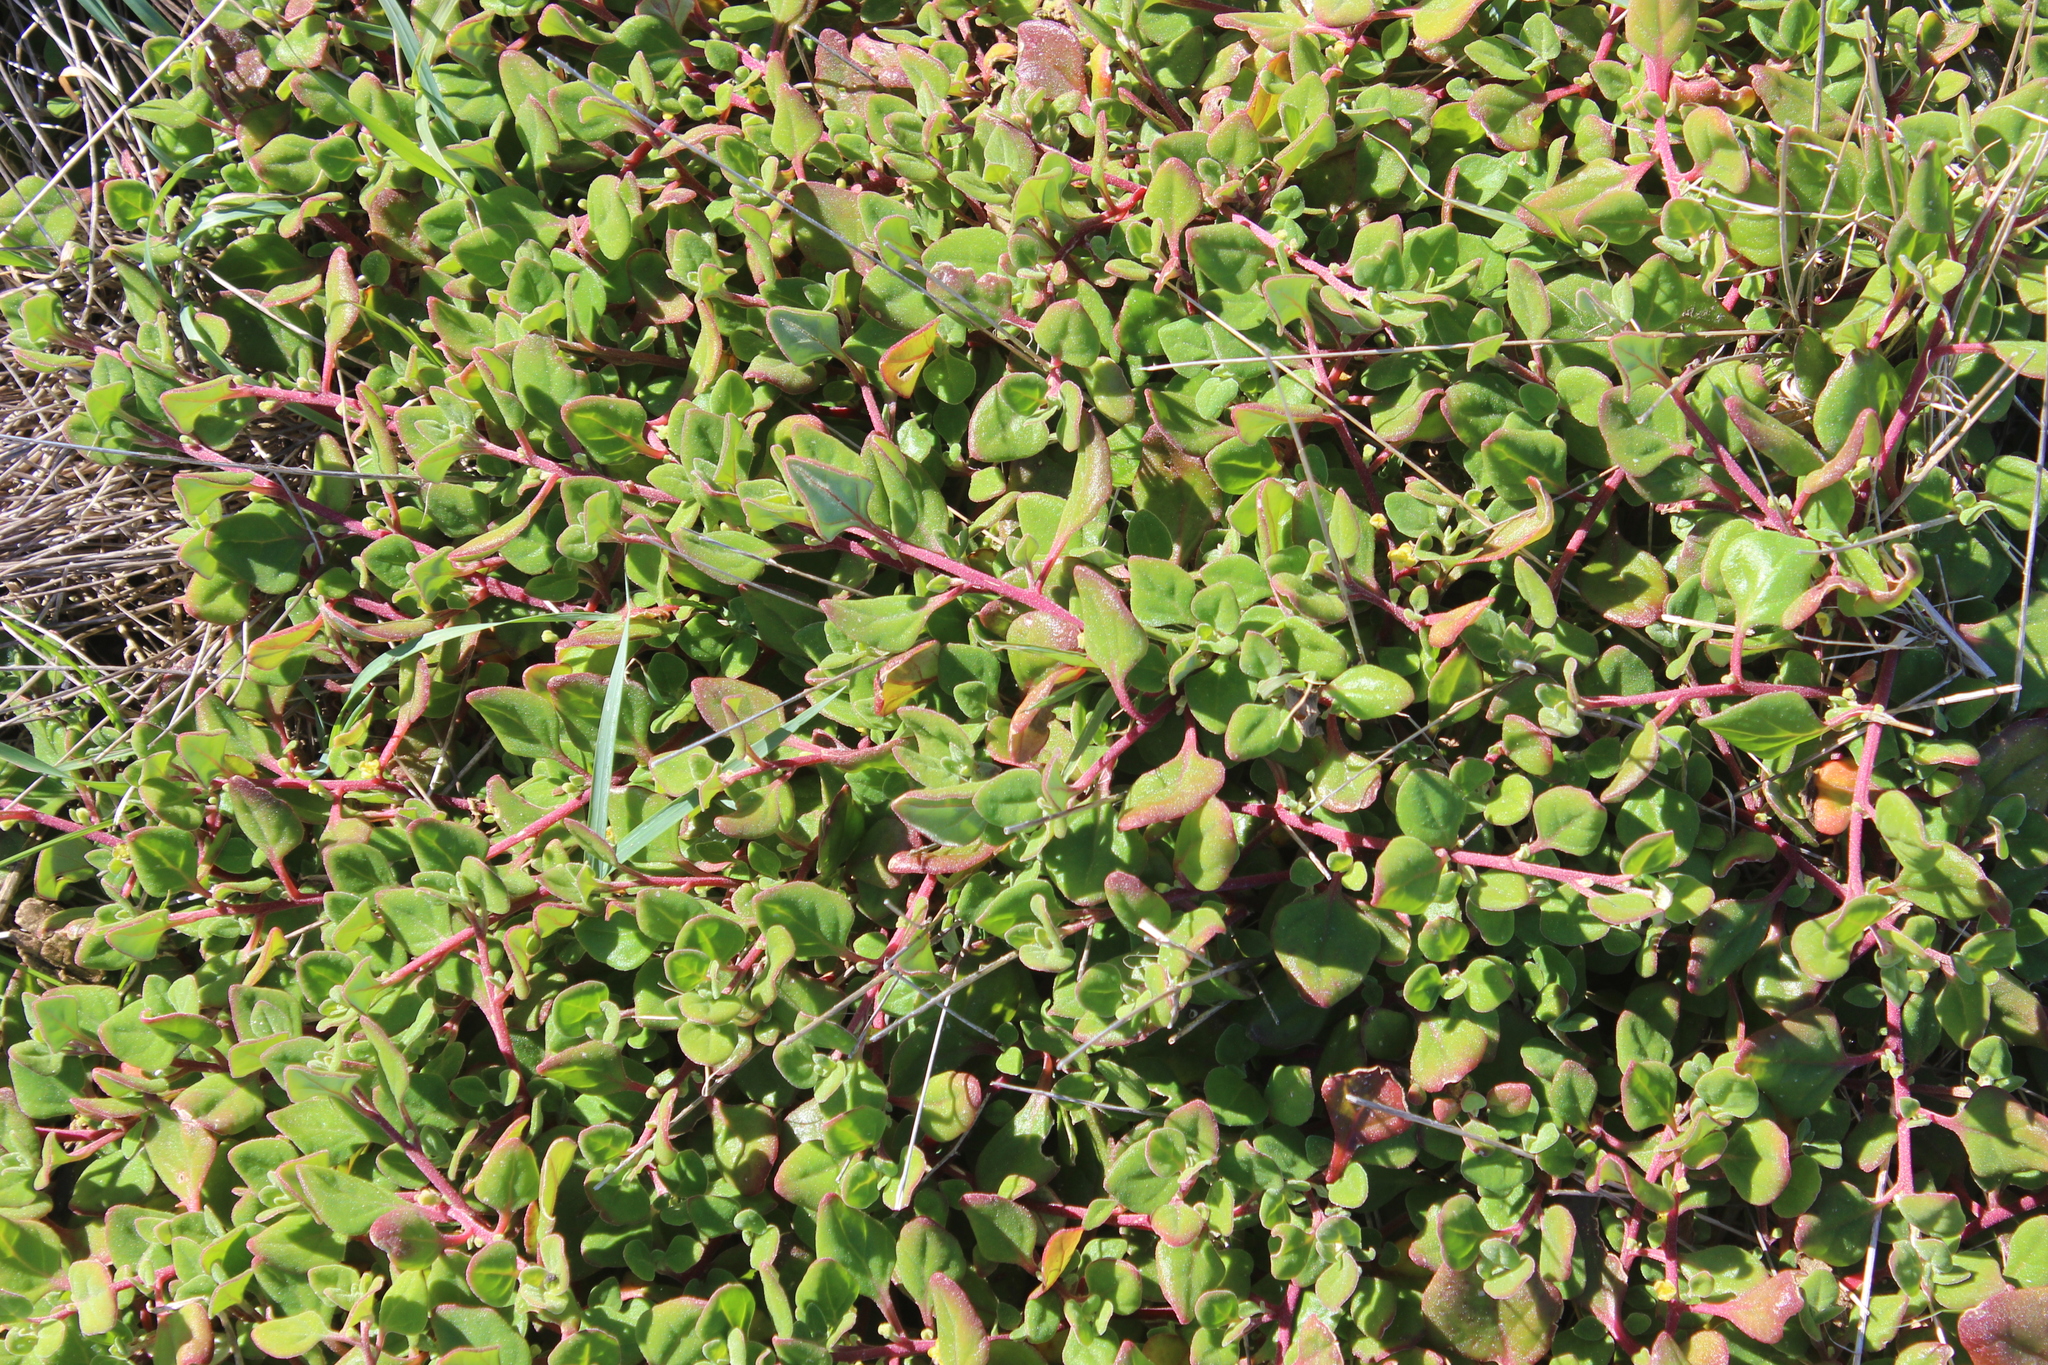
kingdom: Plantae
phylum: Tracheophyta
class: Magnoliopsida
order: Caryophyllales
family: Aizoaceae
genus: Tetragonia
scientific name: Tetragonia implexicoma
